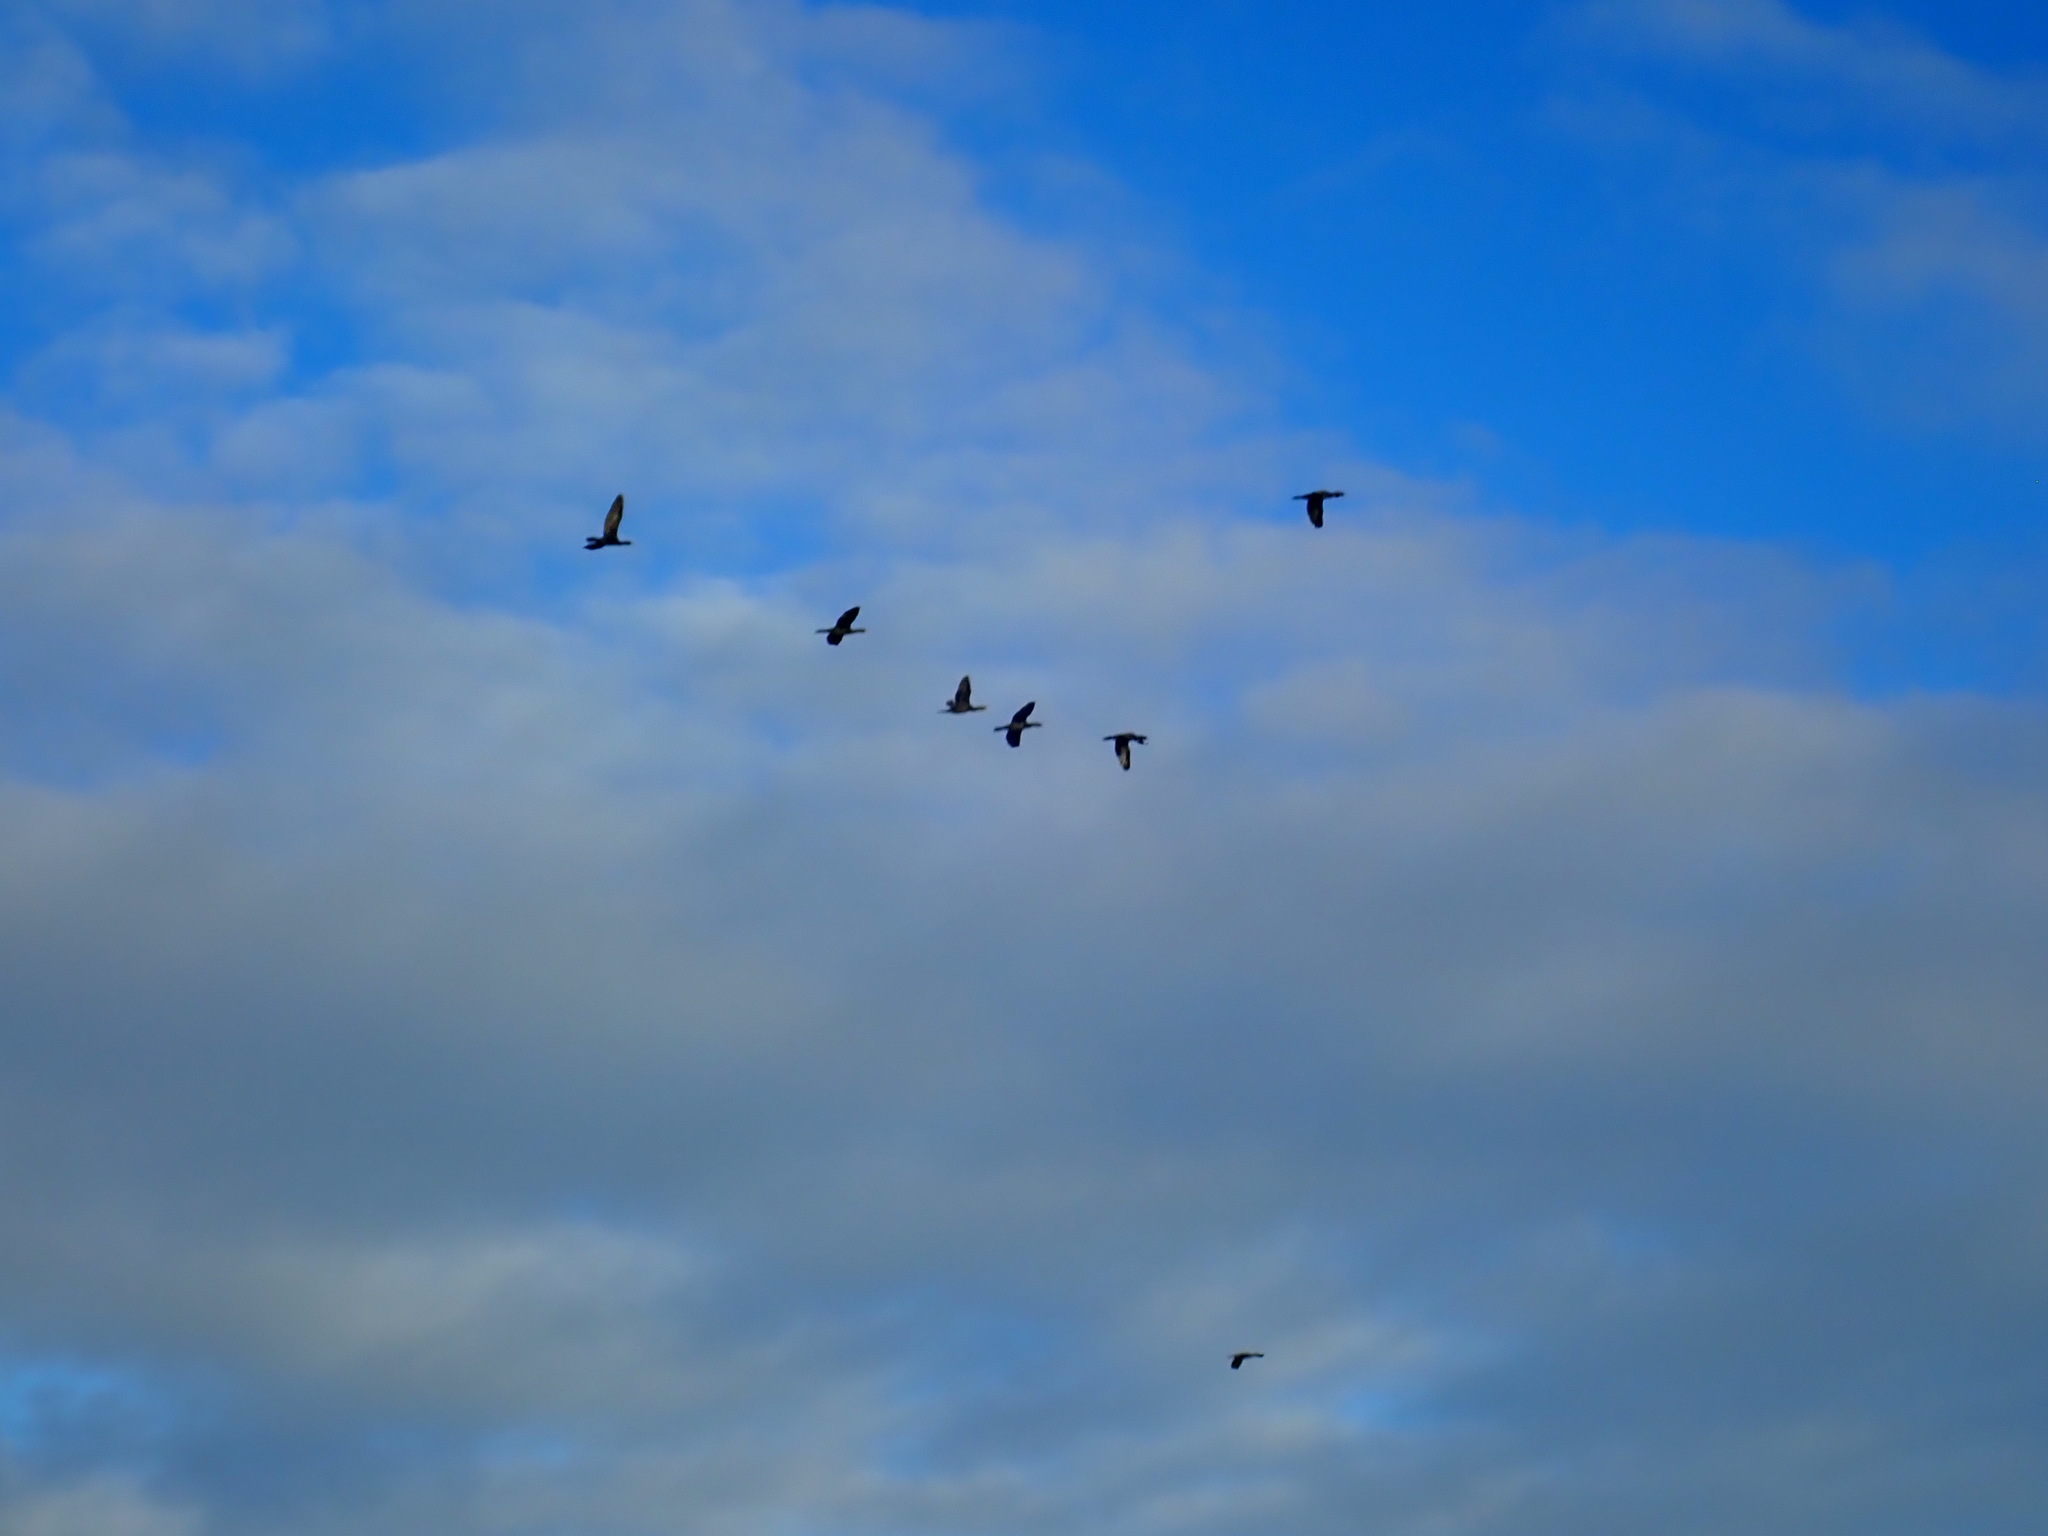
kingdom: Animalia
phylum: Chordata
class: Aves
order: Suliformes
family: Phalacrocoracidae
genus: Phalacrocorax
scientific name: Phalacrocorax carbo
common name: Great cormorant
